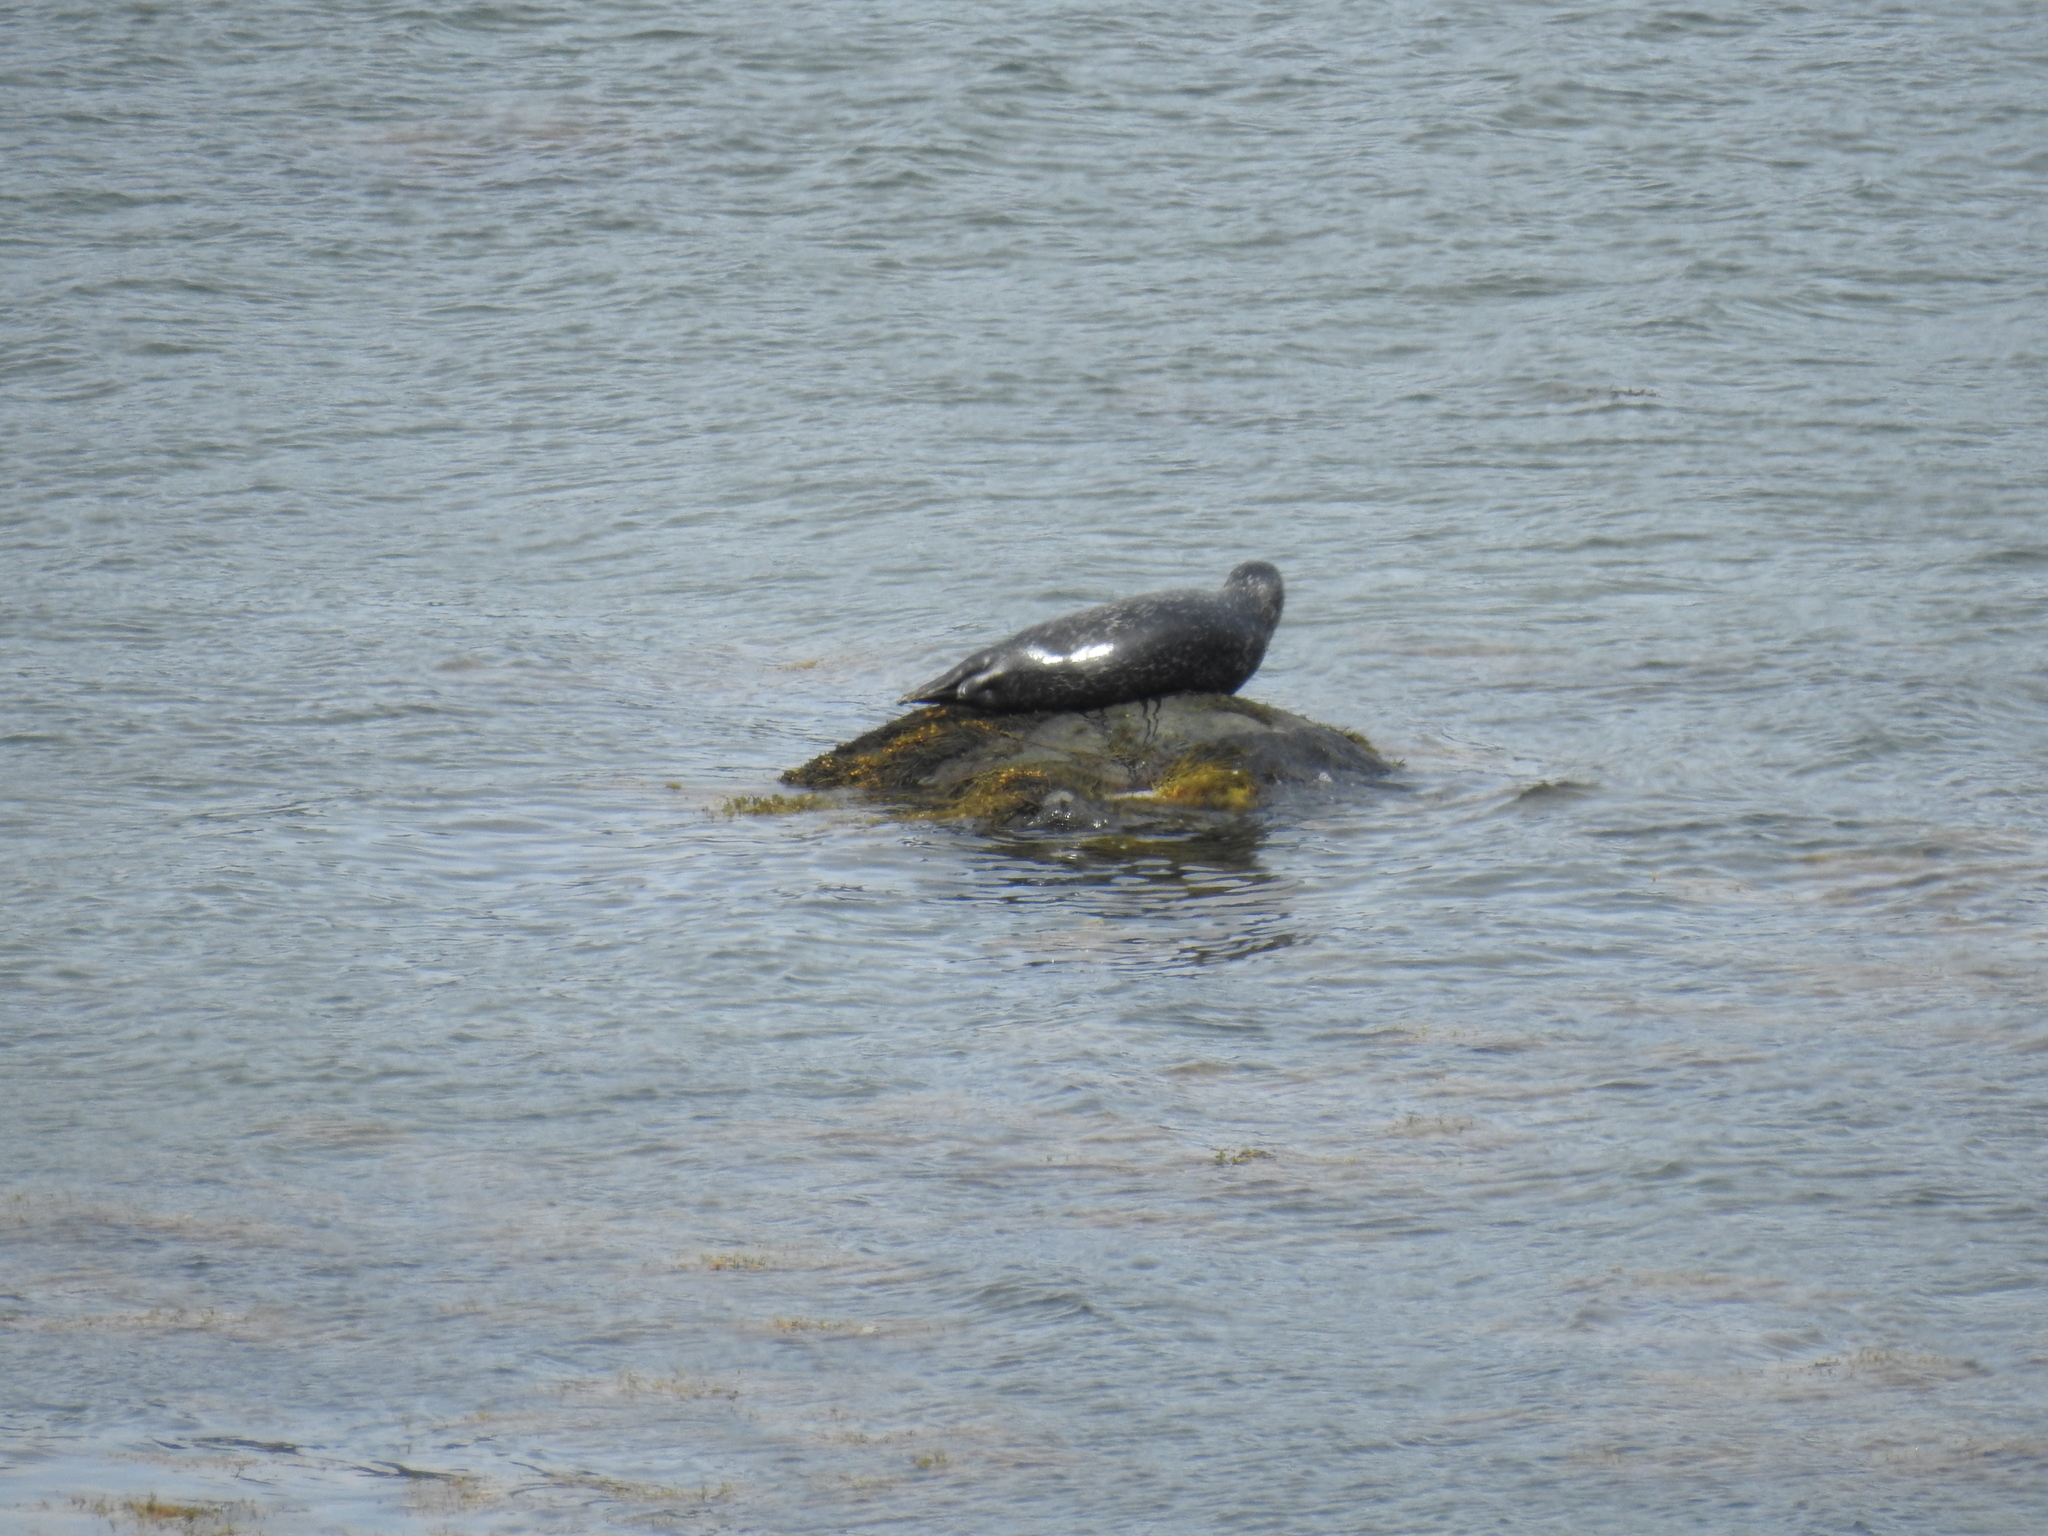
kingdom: Animalia
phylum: Chordata
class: Mammalia
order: Carnivora
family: Phocidae
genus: Phoca
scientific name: Phoca vitulina
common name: Harbor seal
